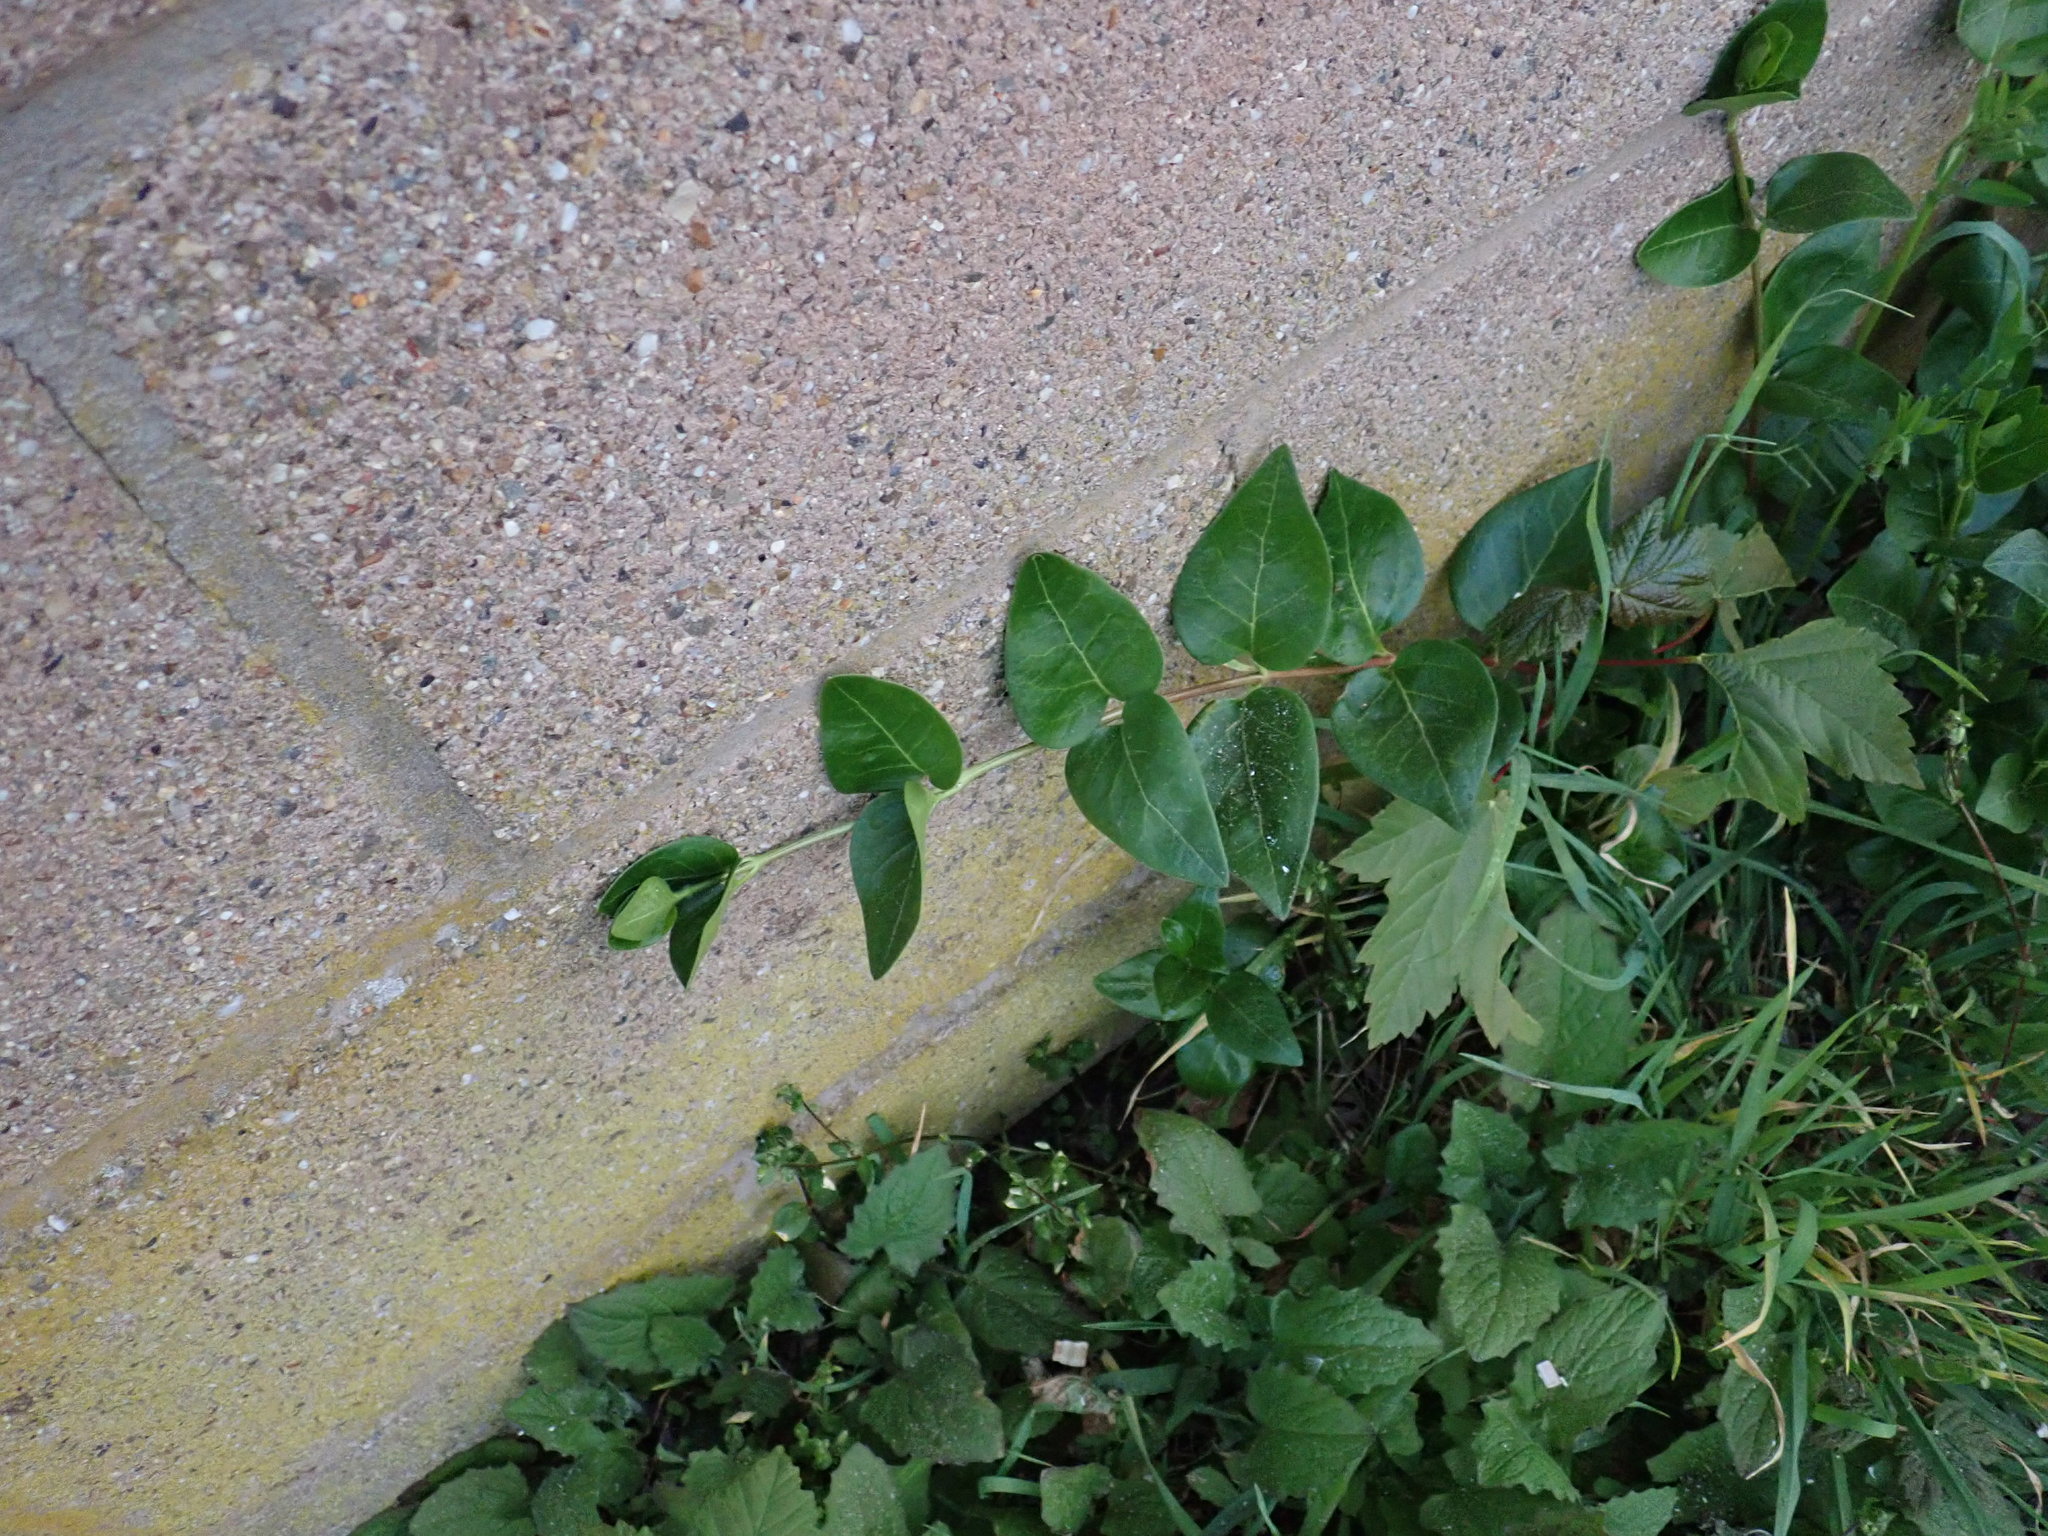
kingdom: Plantae
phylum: Tracheophyta
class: Magnoliopsida
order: Gentianales
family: Apocynaceae
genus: Vinca
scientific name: Vinca major
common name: Greater periwinkle
